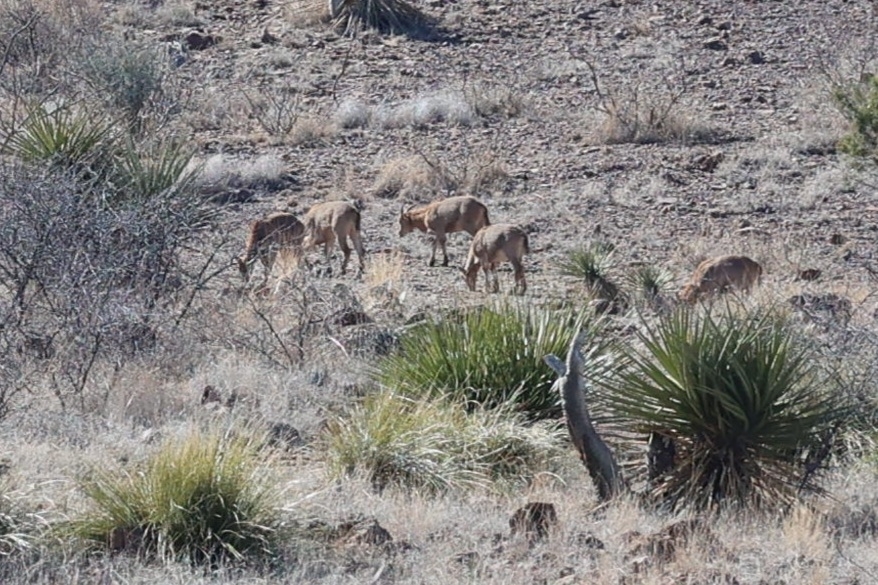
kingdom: Animalia
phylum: Chordata
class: Mammalia
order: Artiodactyla
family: Bovidae
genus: Ammotragus
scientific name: Ammotragus lervia
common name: Barbary sheep
